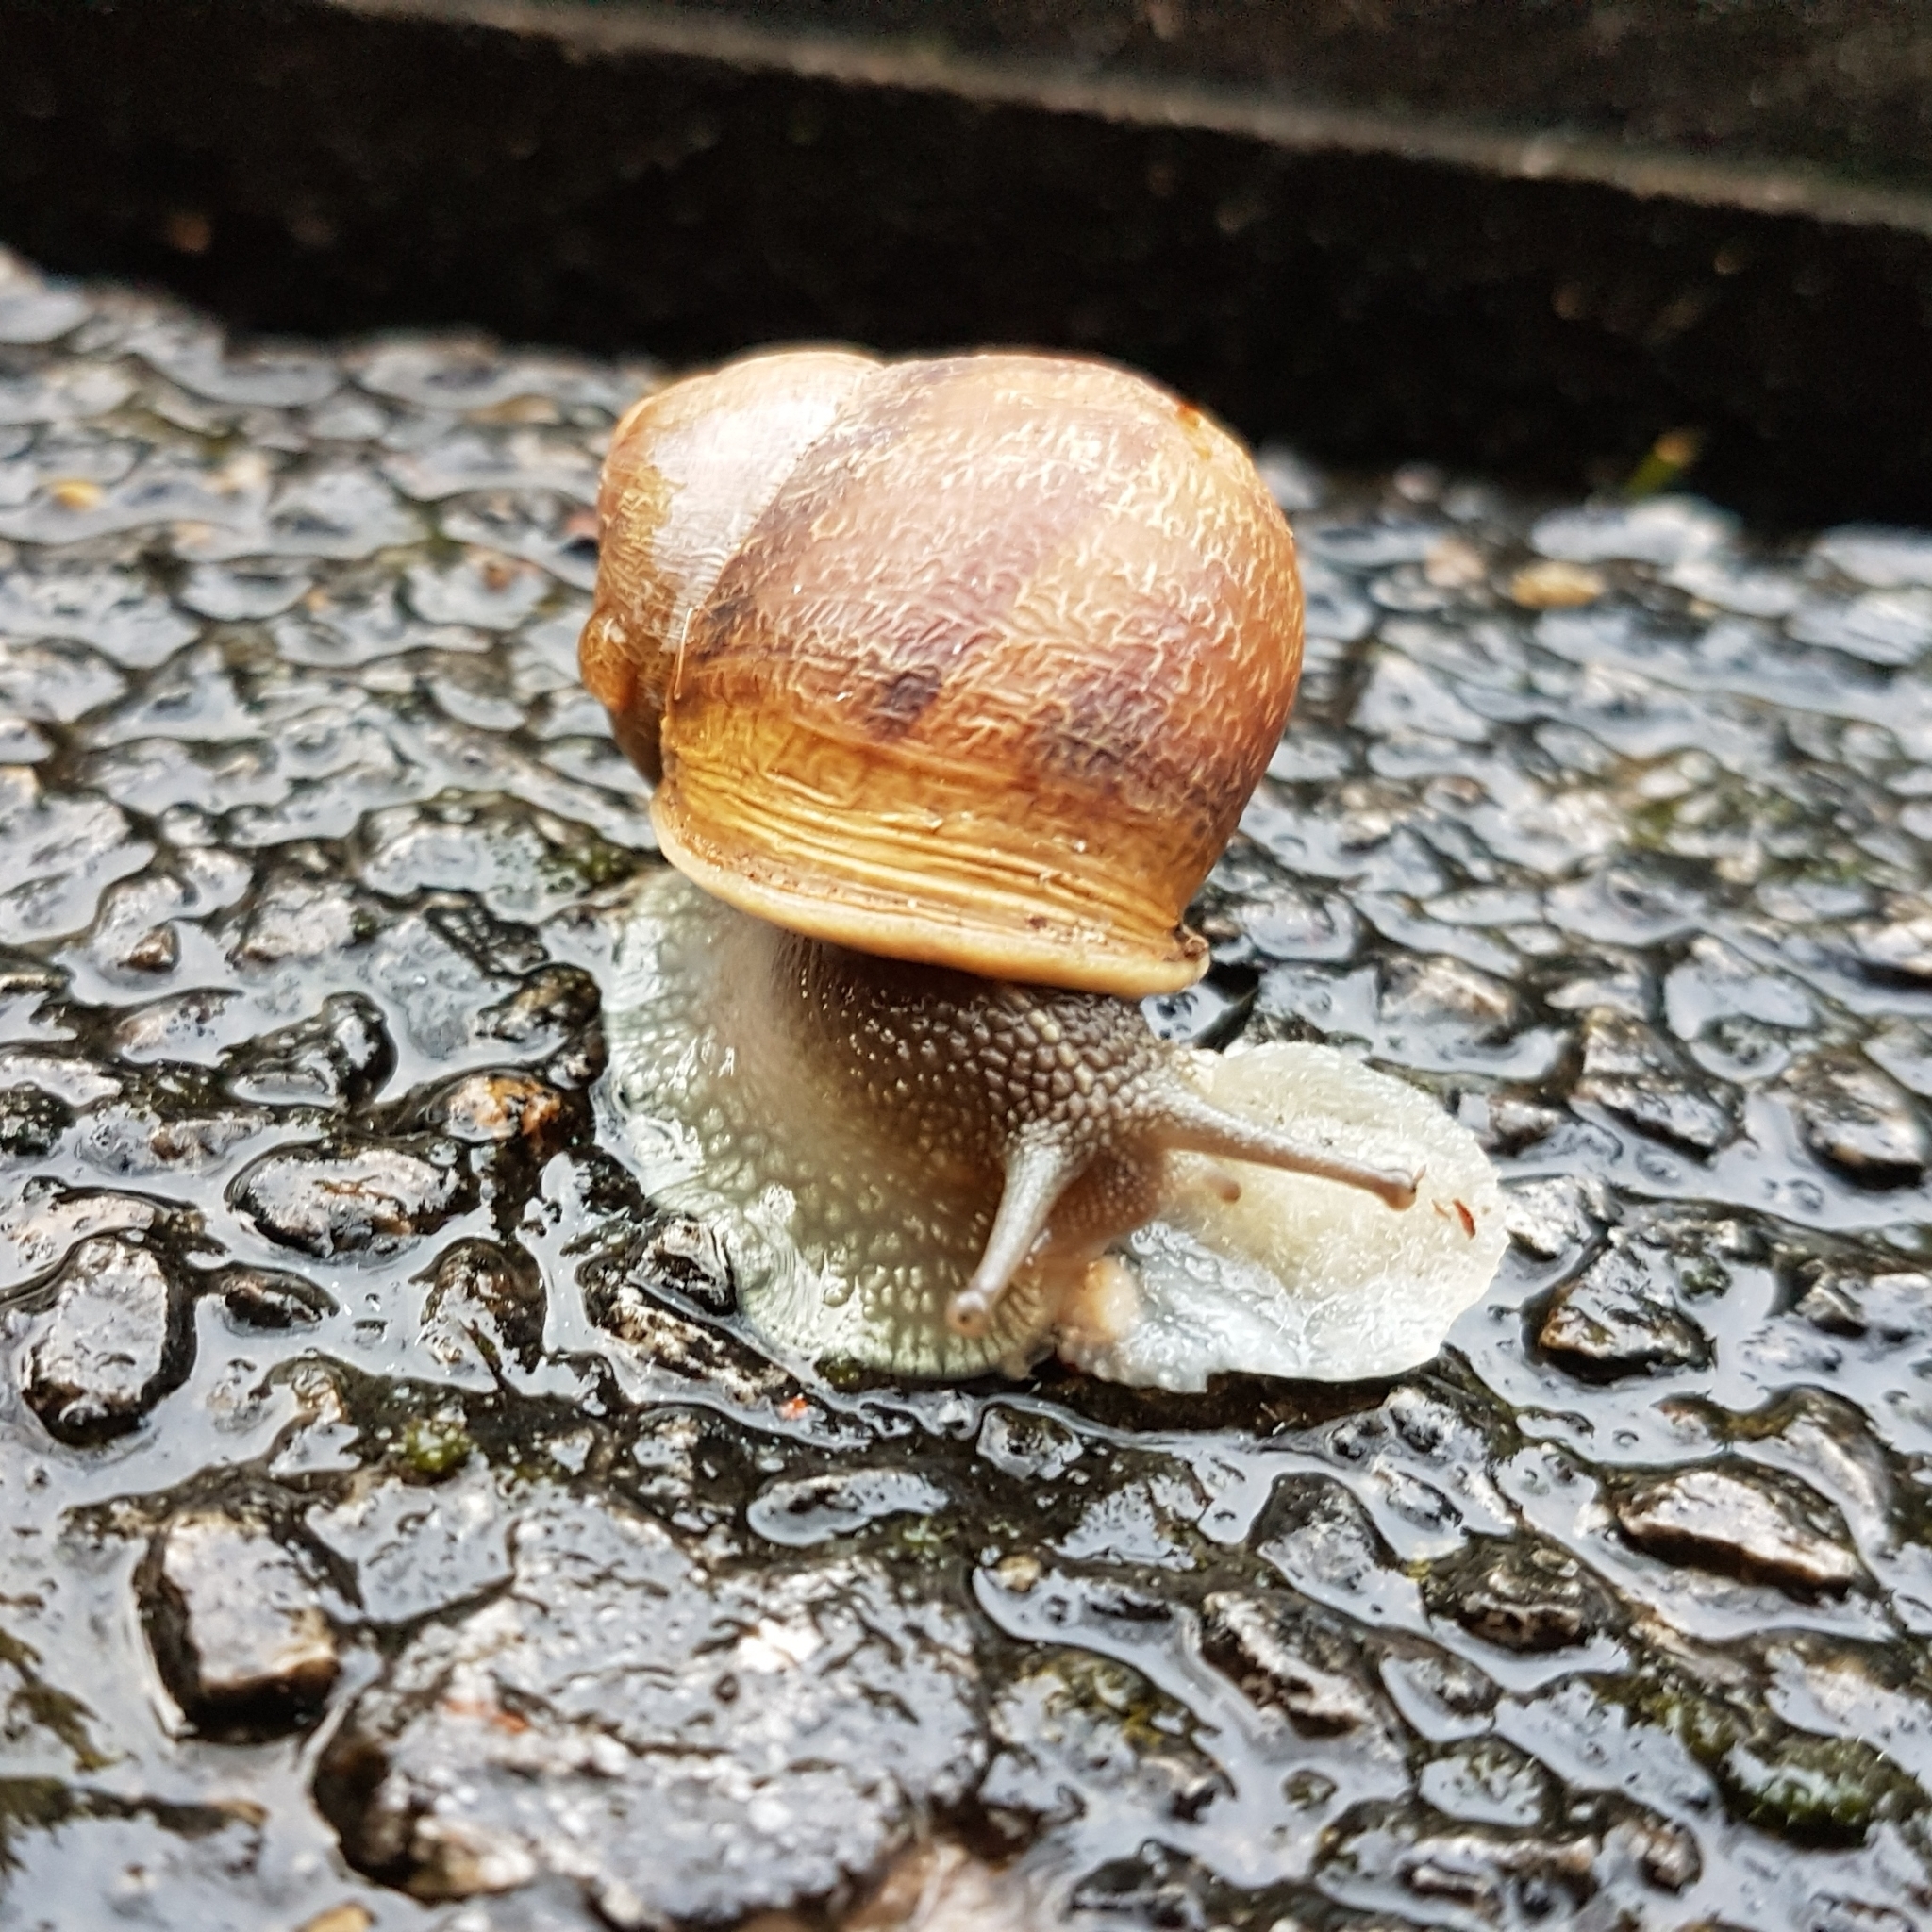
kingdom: Animalia
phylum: Mollusca
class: Gastropoda
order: Stylommatophora
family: Helicidae
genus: Cornu
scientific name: Cornu aspersum
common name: Brown garden snail
